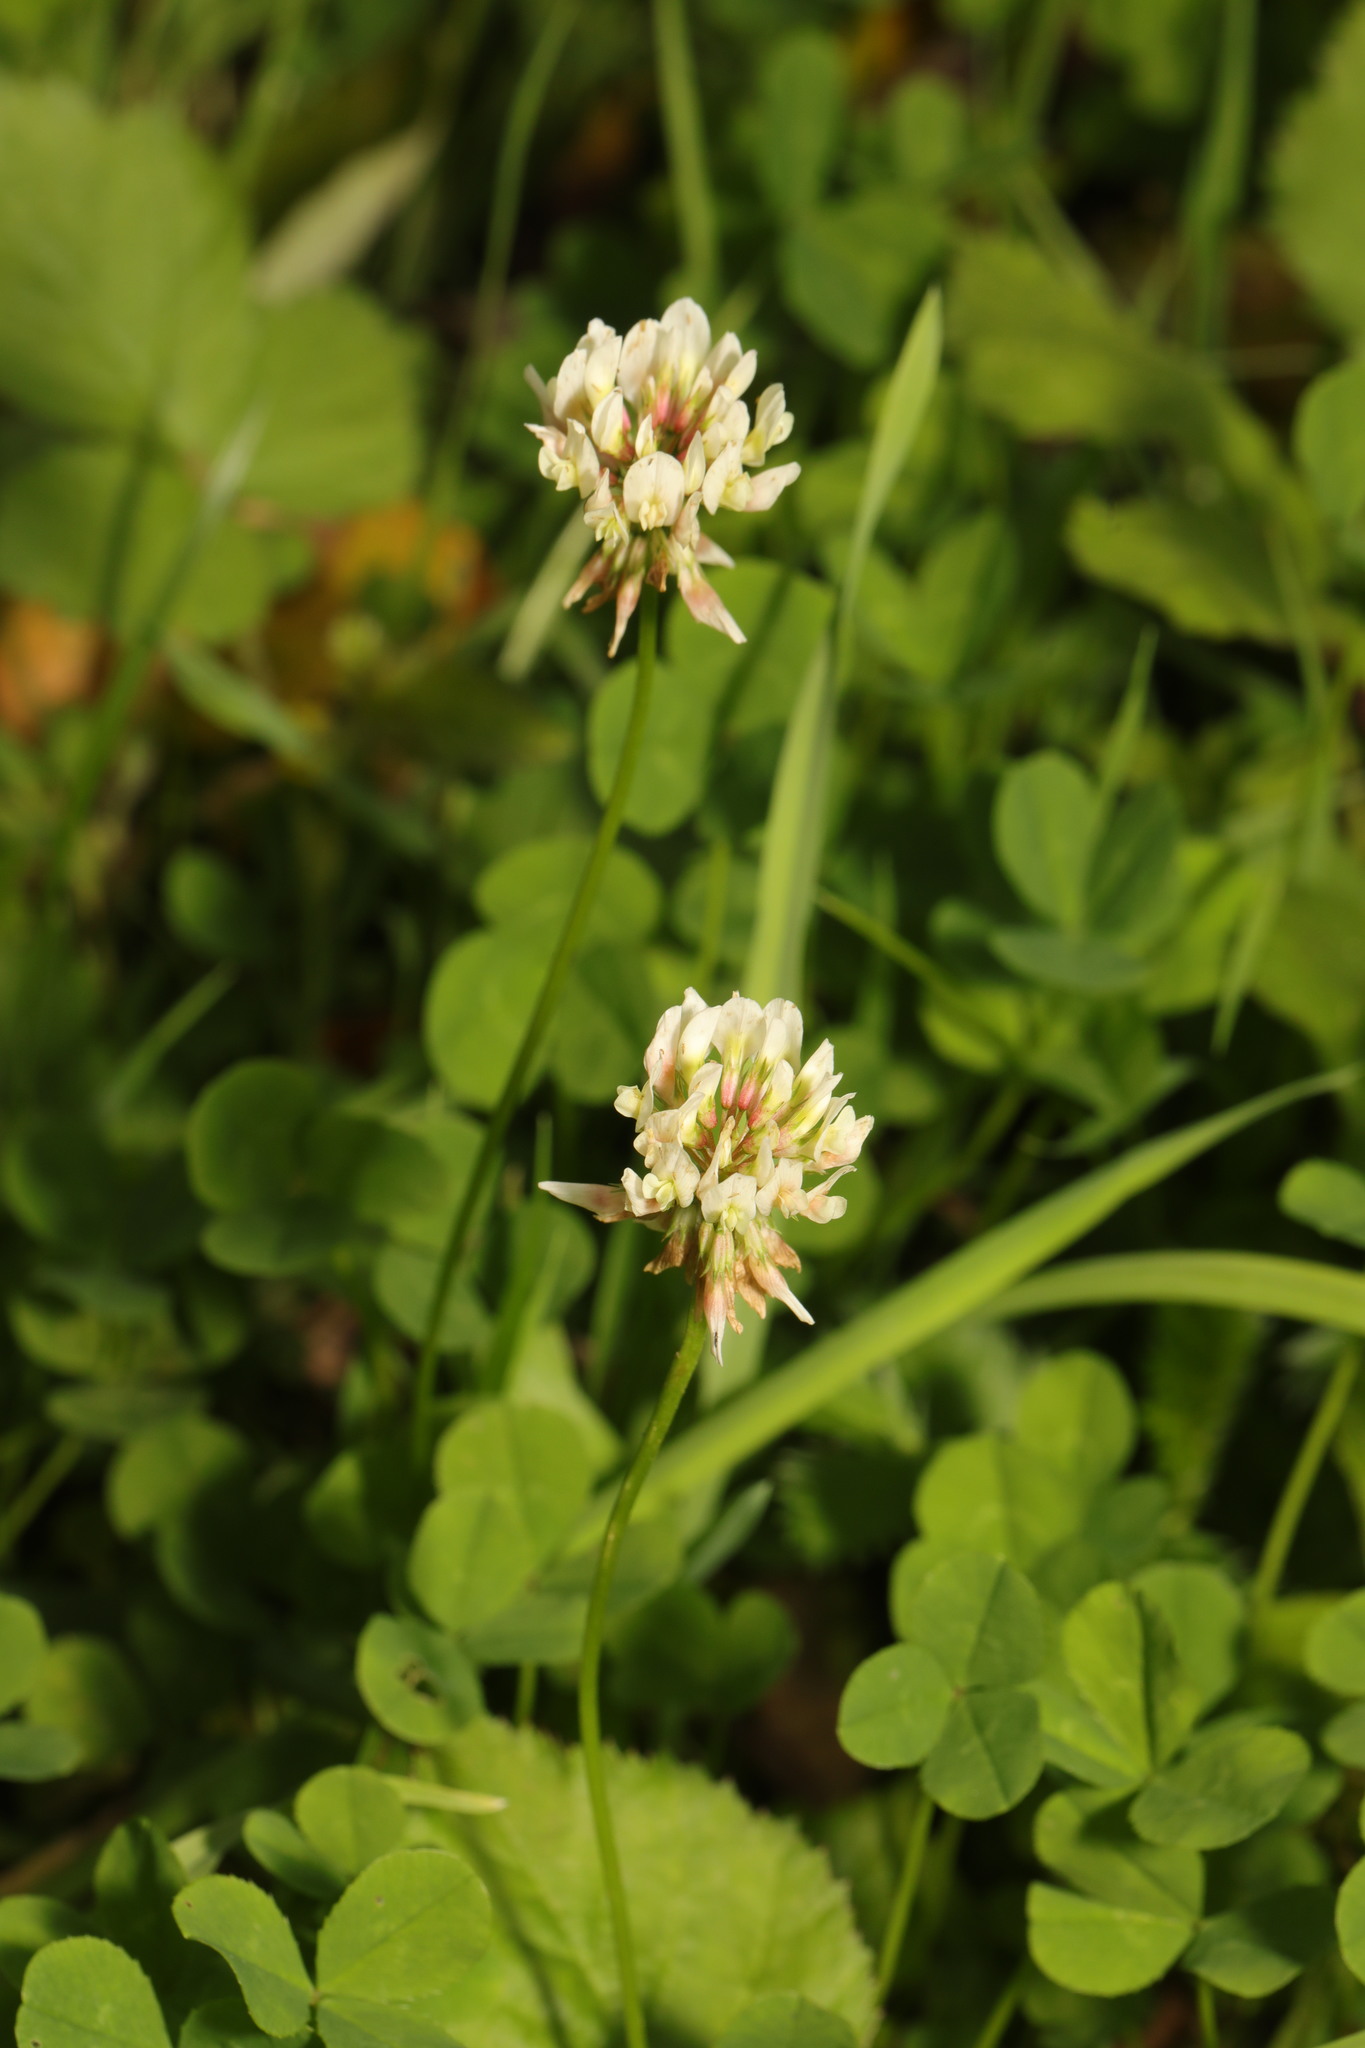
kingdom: Plantae
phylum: Tracheophyta
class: Magnoliopsida
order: Fabales
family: Fabaceae
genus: Trifolium
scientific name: Trifolium repens
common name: White clover
